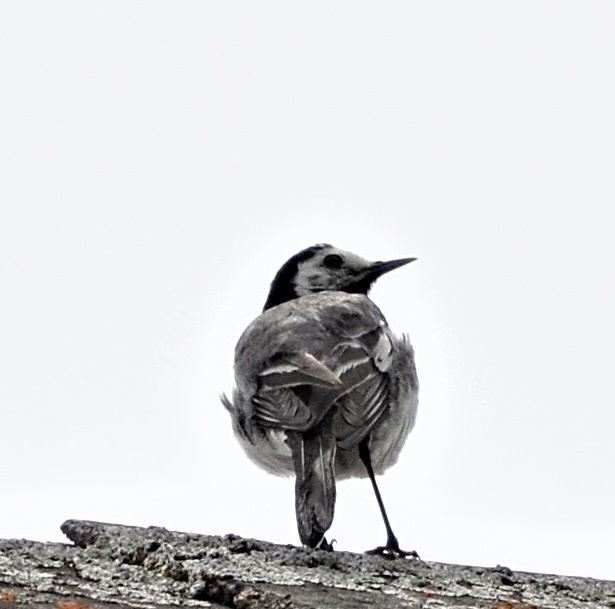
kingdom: Animalia
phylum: Chordata
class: Aves
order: Passeriformes
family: Motacillidae
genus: Motacilla
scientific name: Motacilla alba
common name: White wagtail
